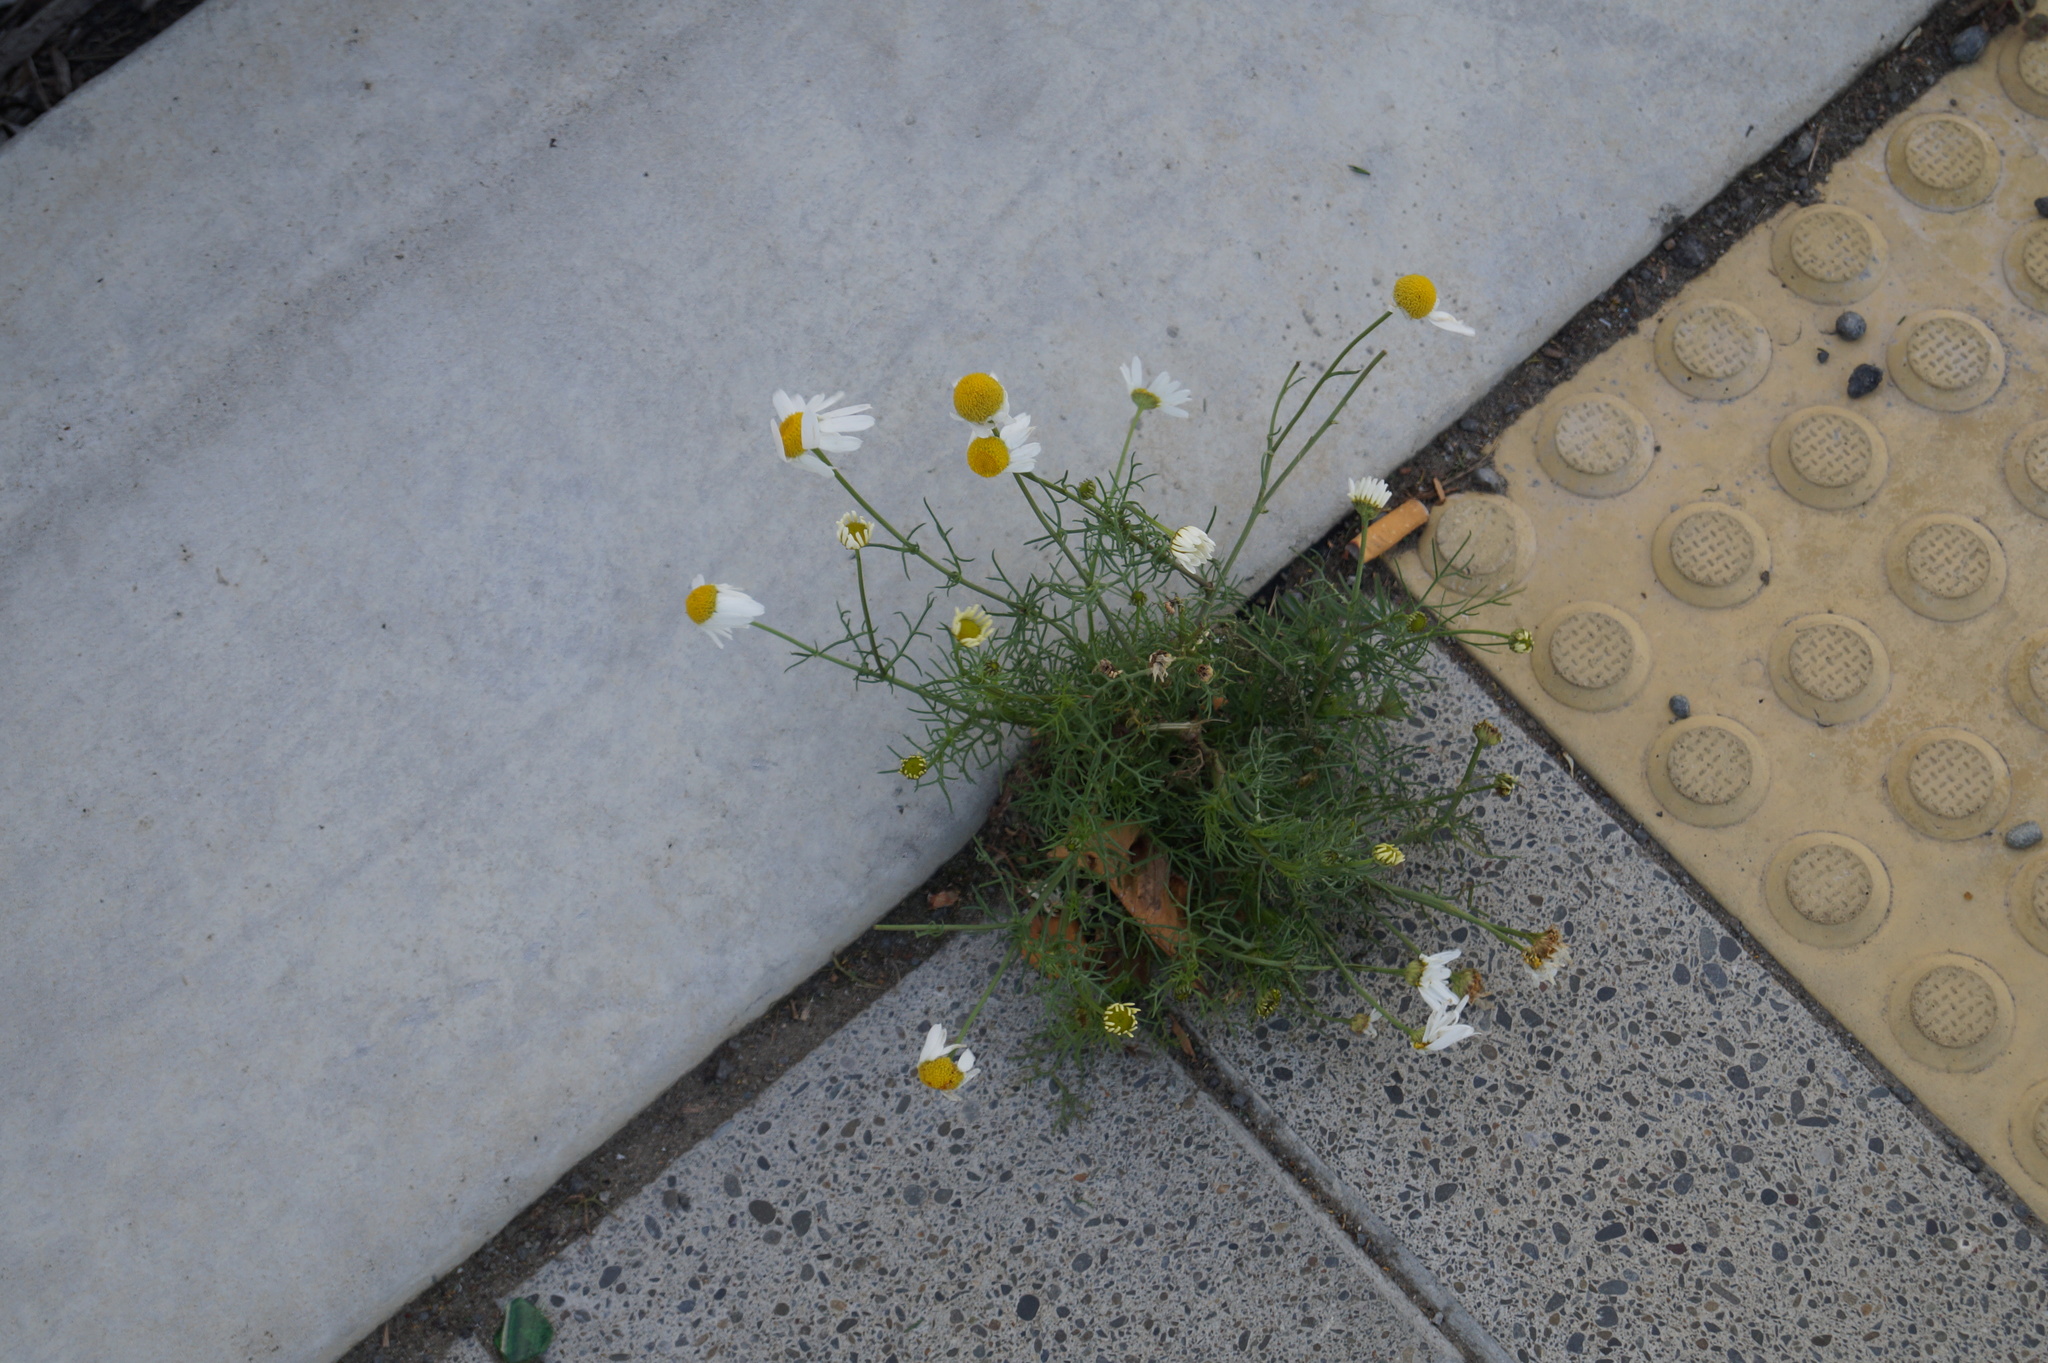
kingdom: Plantae
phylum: Tracheophyta
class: Magnoliopsida
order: Asterales
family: Asteraceae
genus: Tripleurospermum
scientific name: Tripleurospermum inodorum
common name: Scentless mayweed
